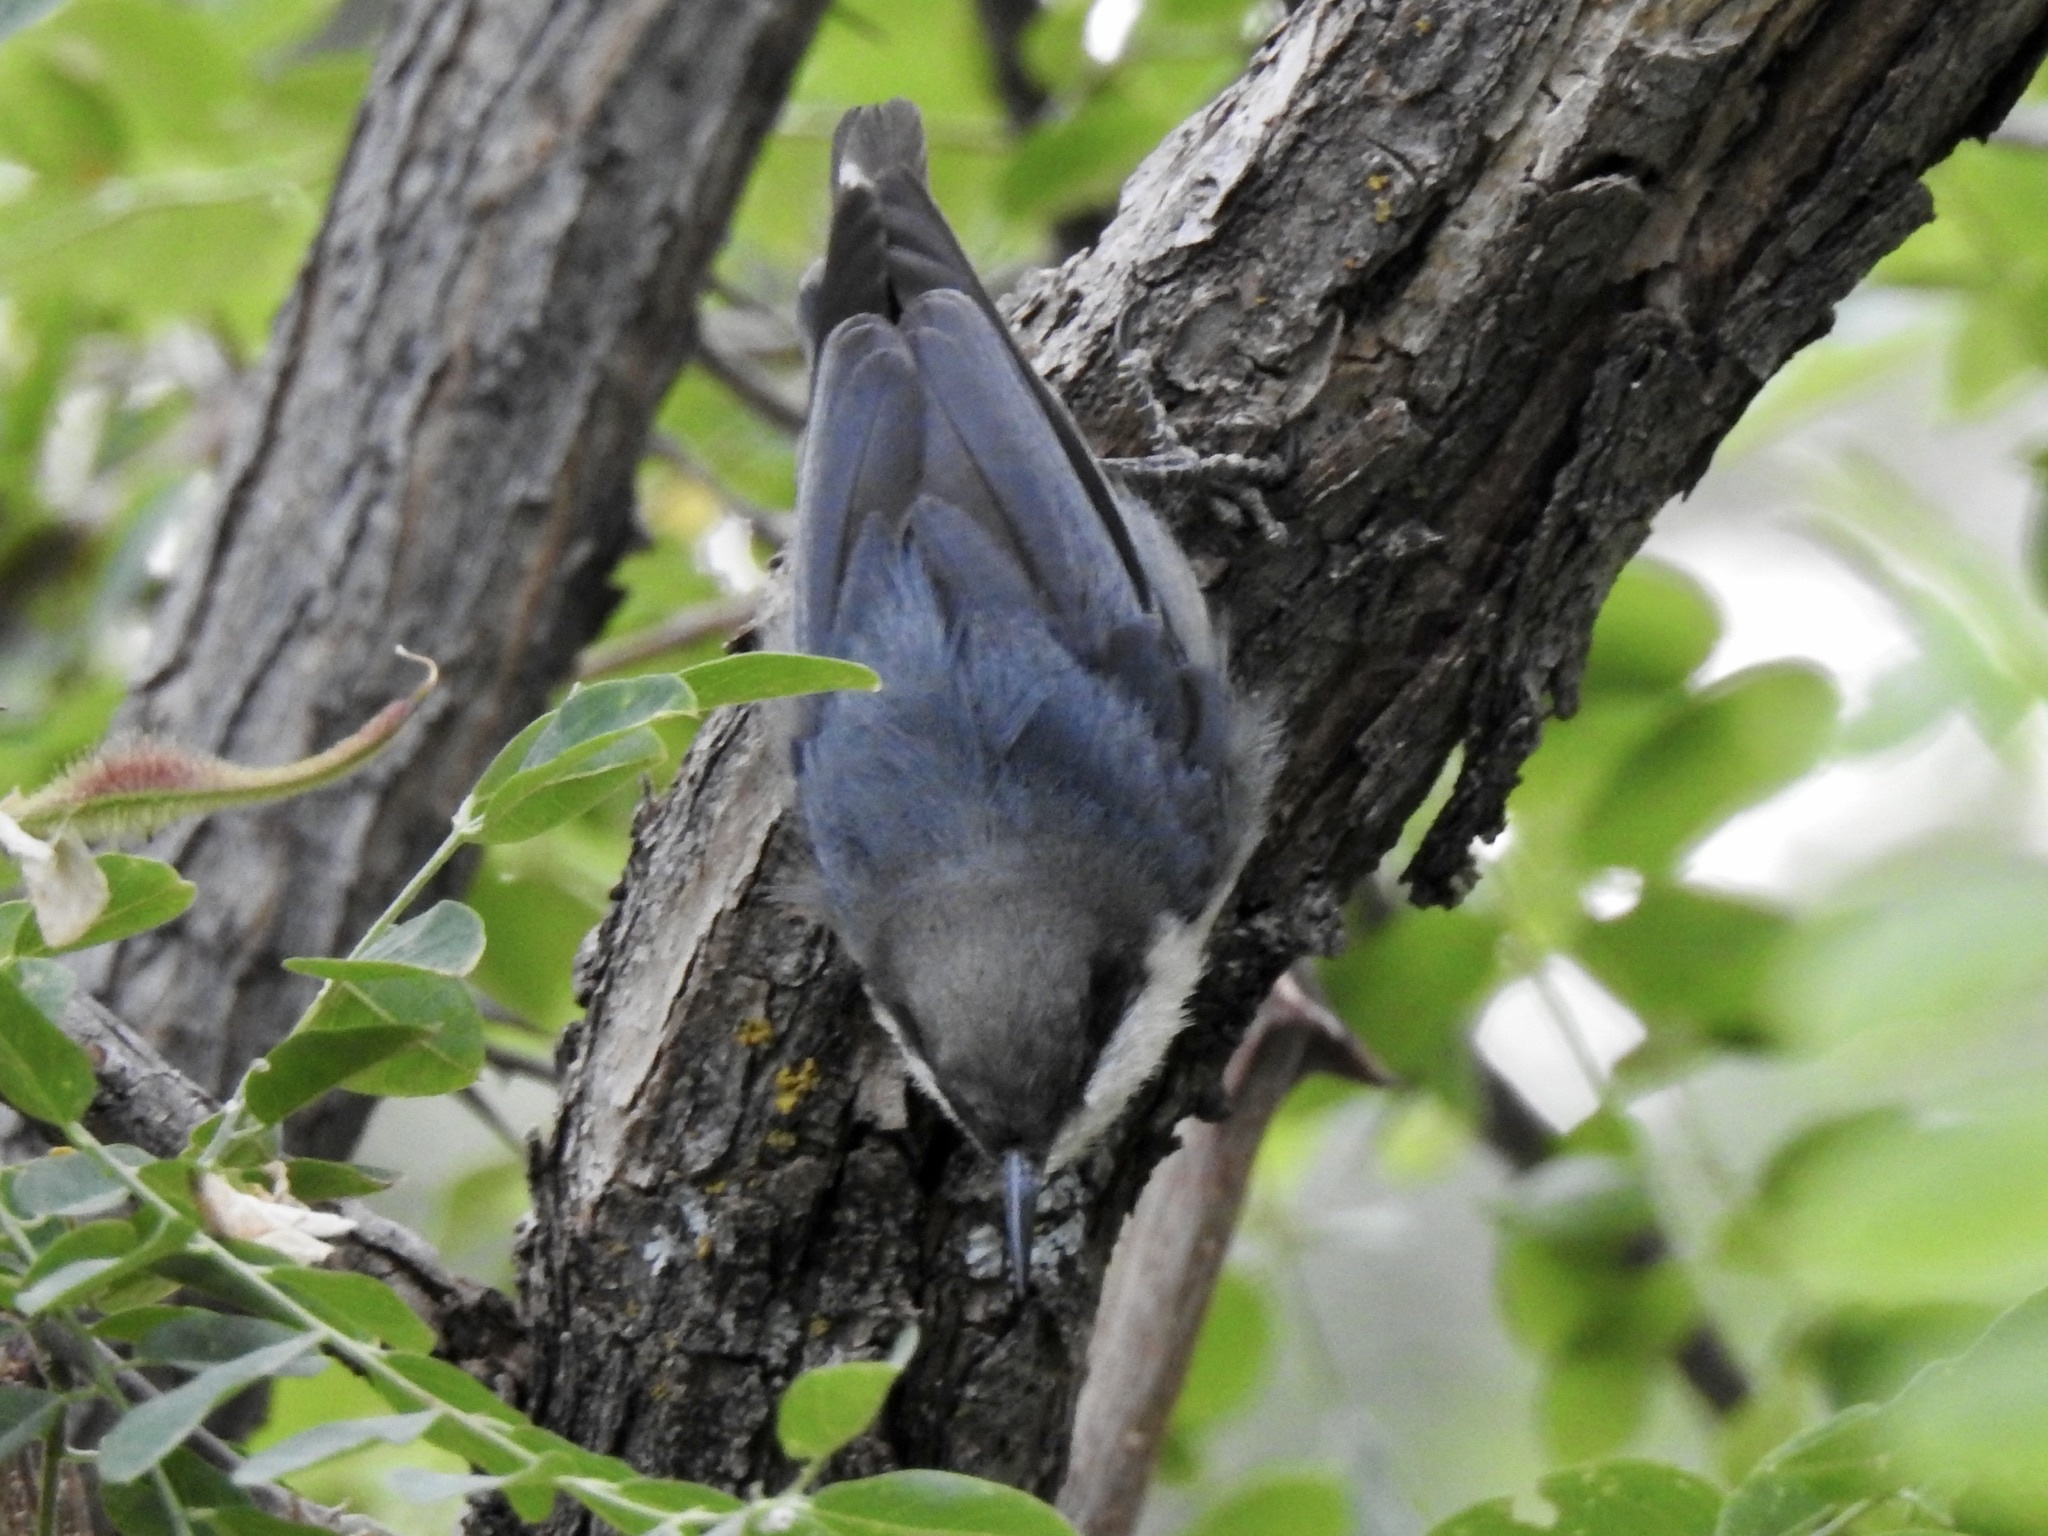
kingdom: Animalia
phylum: Chordata
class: Aves
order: Passeriformes
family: Sittidae
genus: Sitta
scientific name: Sitta pygmaea
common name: Pygmy nuthatch
